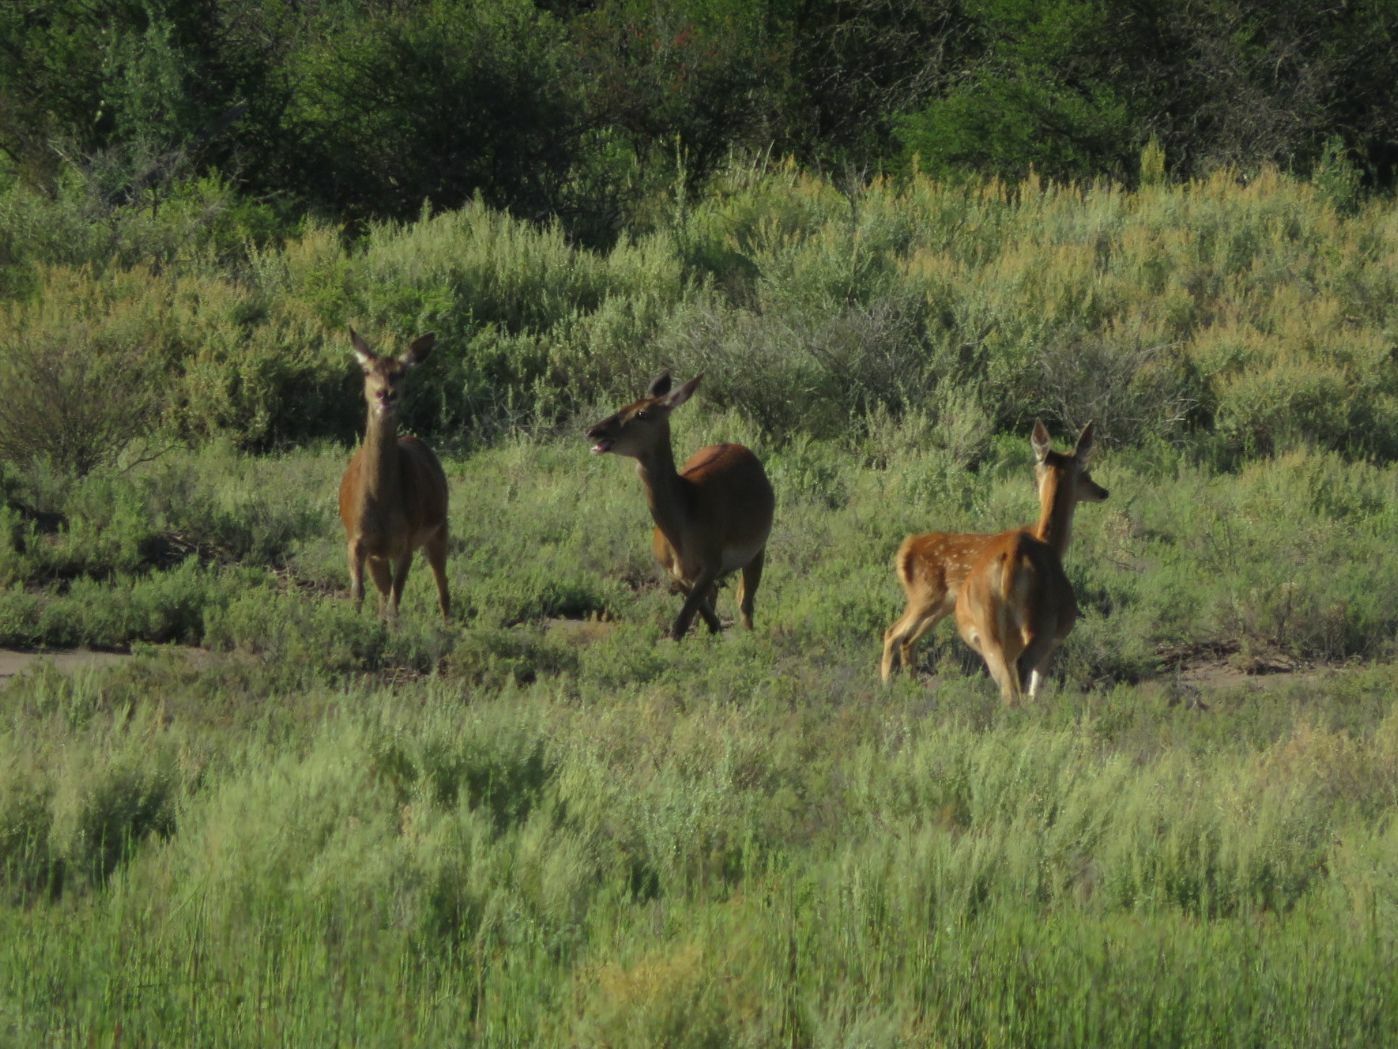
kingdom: Animalia
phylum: Chordata
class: Mammalia
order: Artiodactyla
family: Cervidae
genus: Cervus
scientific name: Cervus elaphus
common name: Red deer
